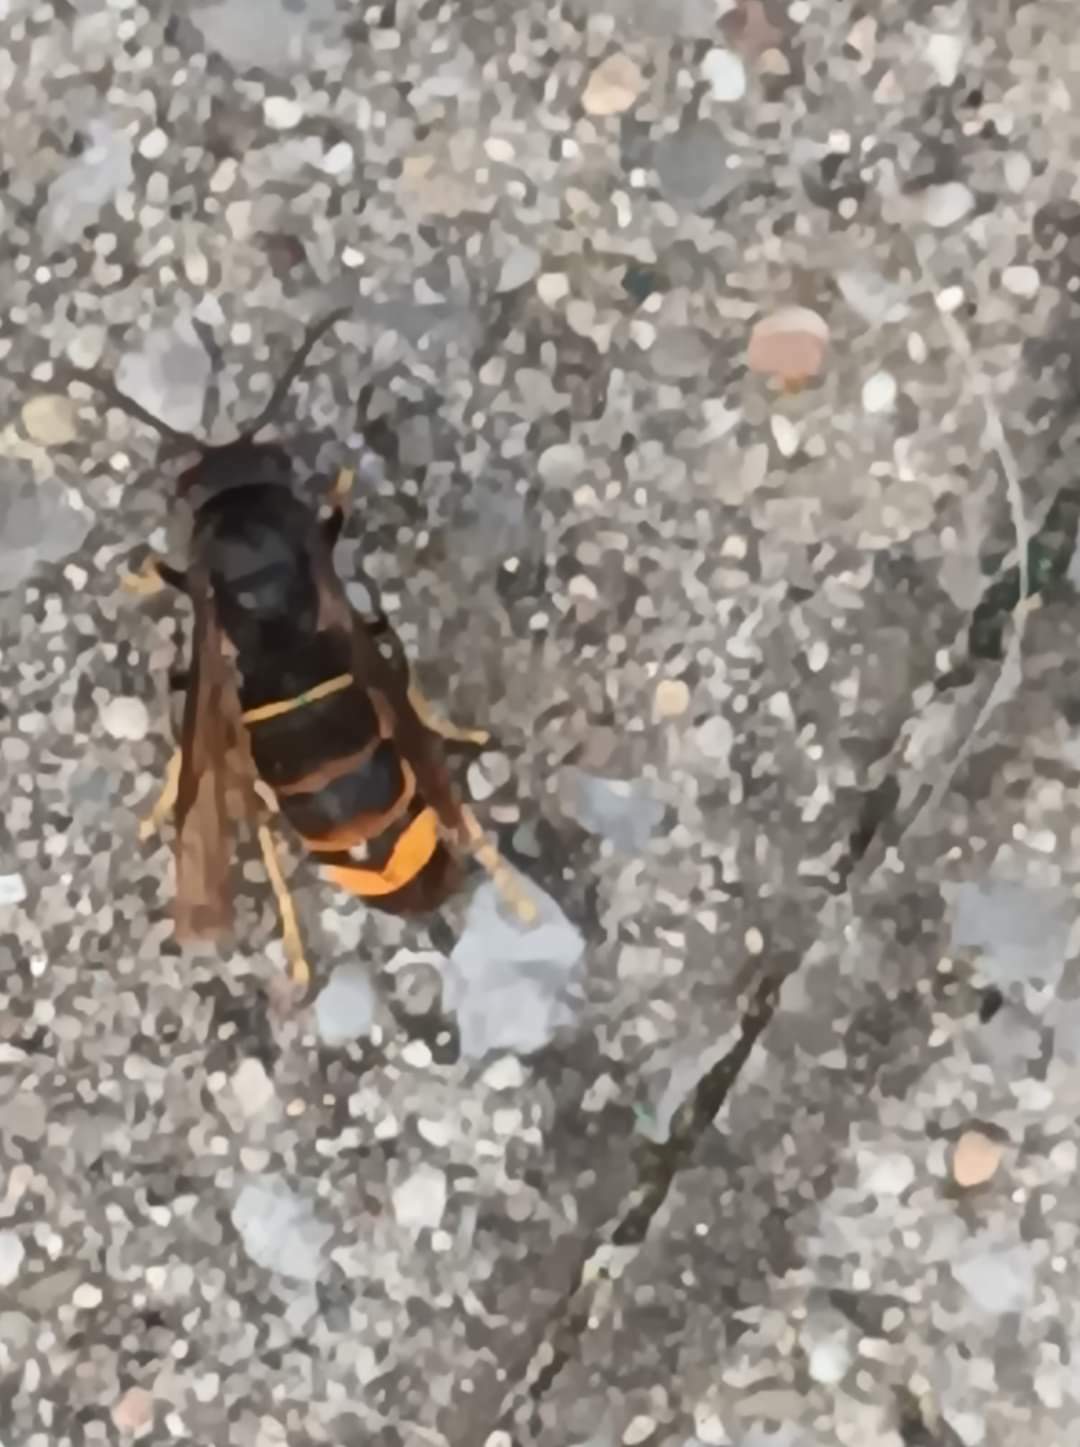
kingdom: Animalia
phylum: Arthropoda
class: Insecta
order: Hymenoptera
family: Vespidae
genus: Vespa
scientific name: Vespa velutina
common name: Asian hornet
